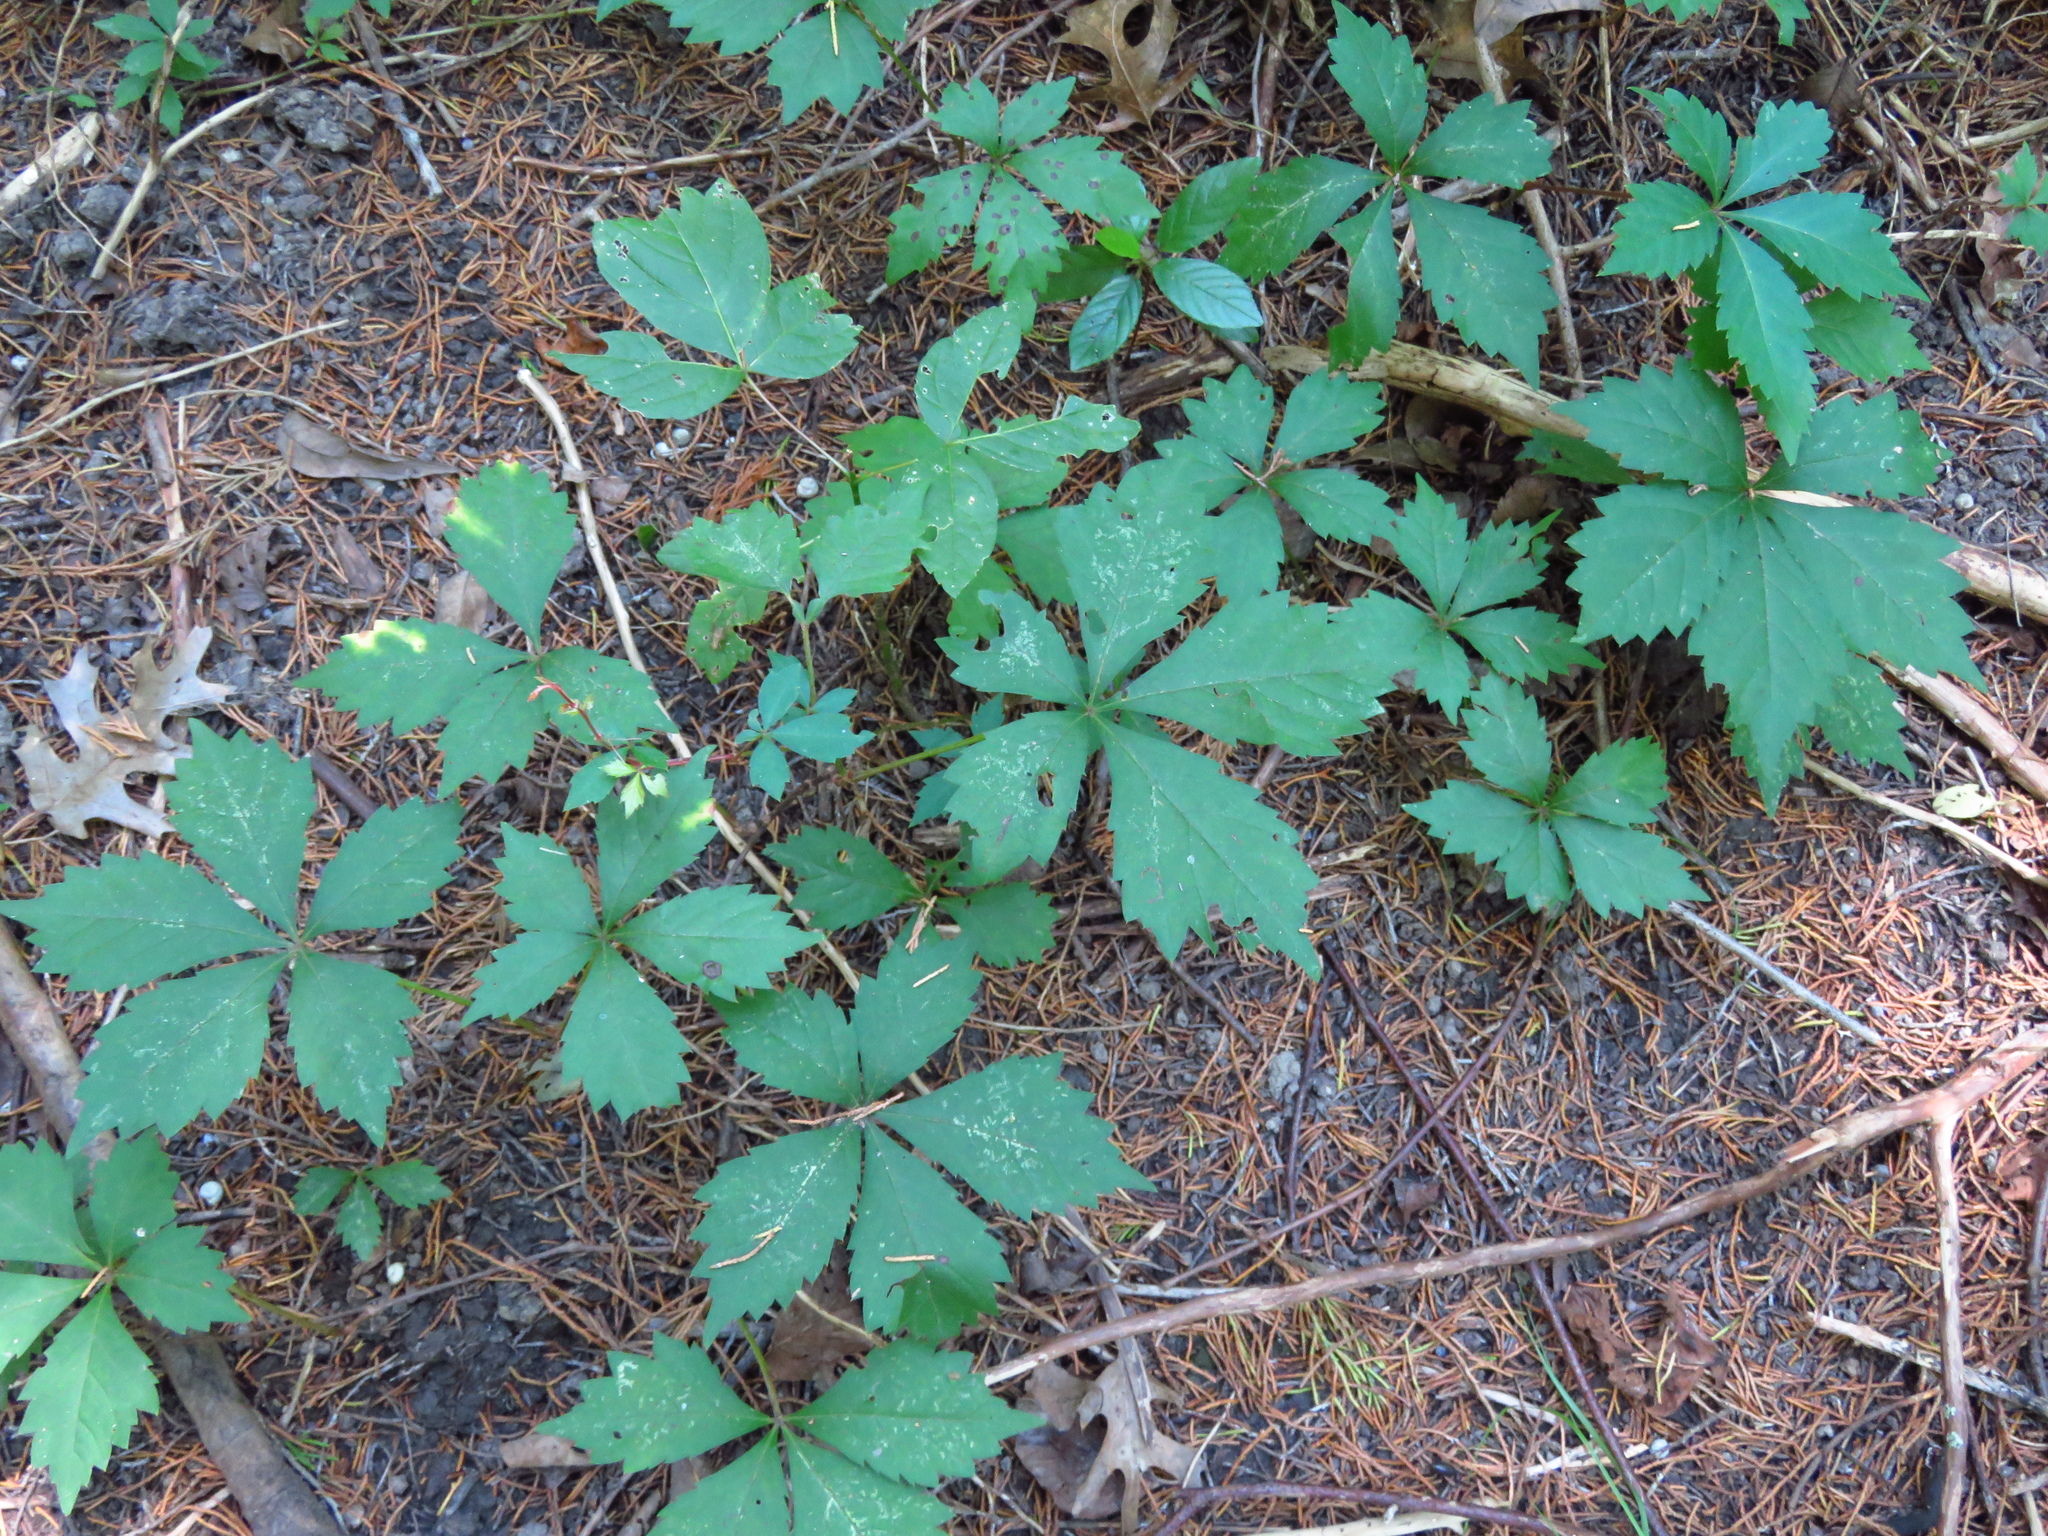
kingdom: Plantae
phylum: Tracheophyta
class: Magnoliopsida
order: Vitales
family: Vitaceae
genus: Parthenocissus
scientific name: Parthenocissus quinquefolia
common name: Virginia-creeper
